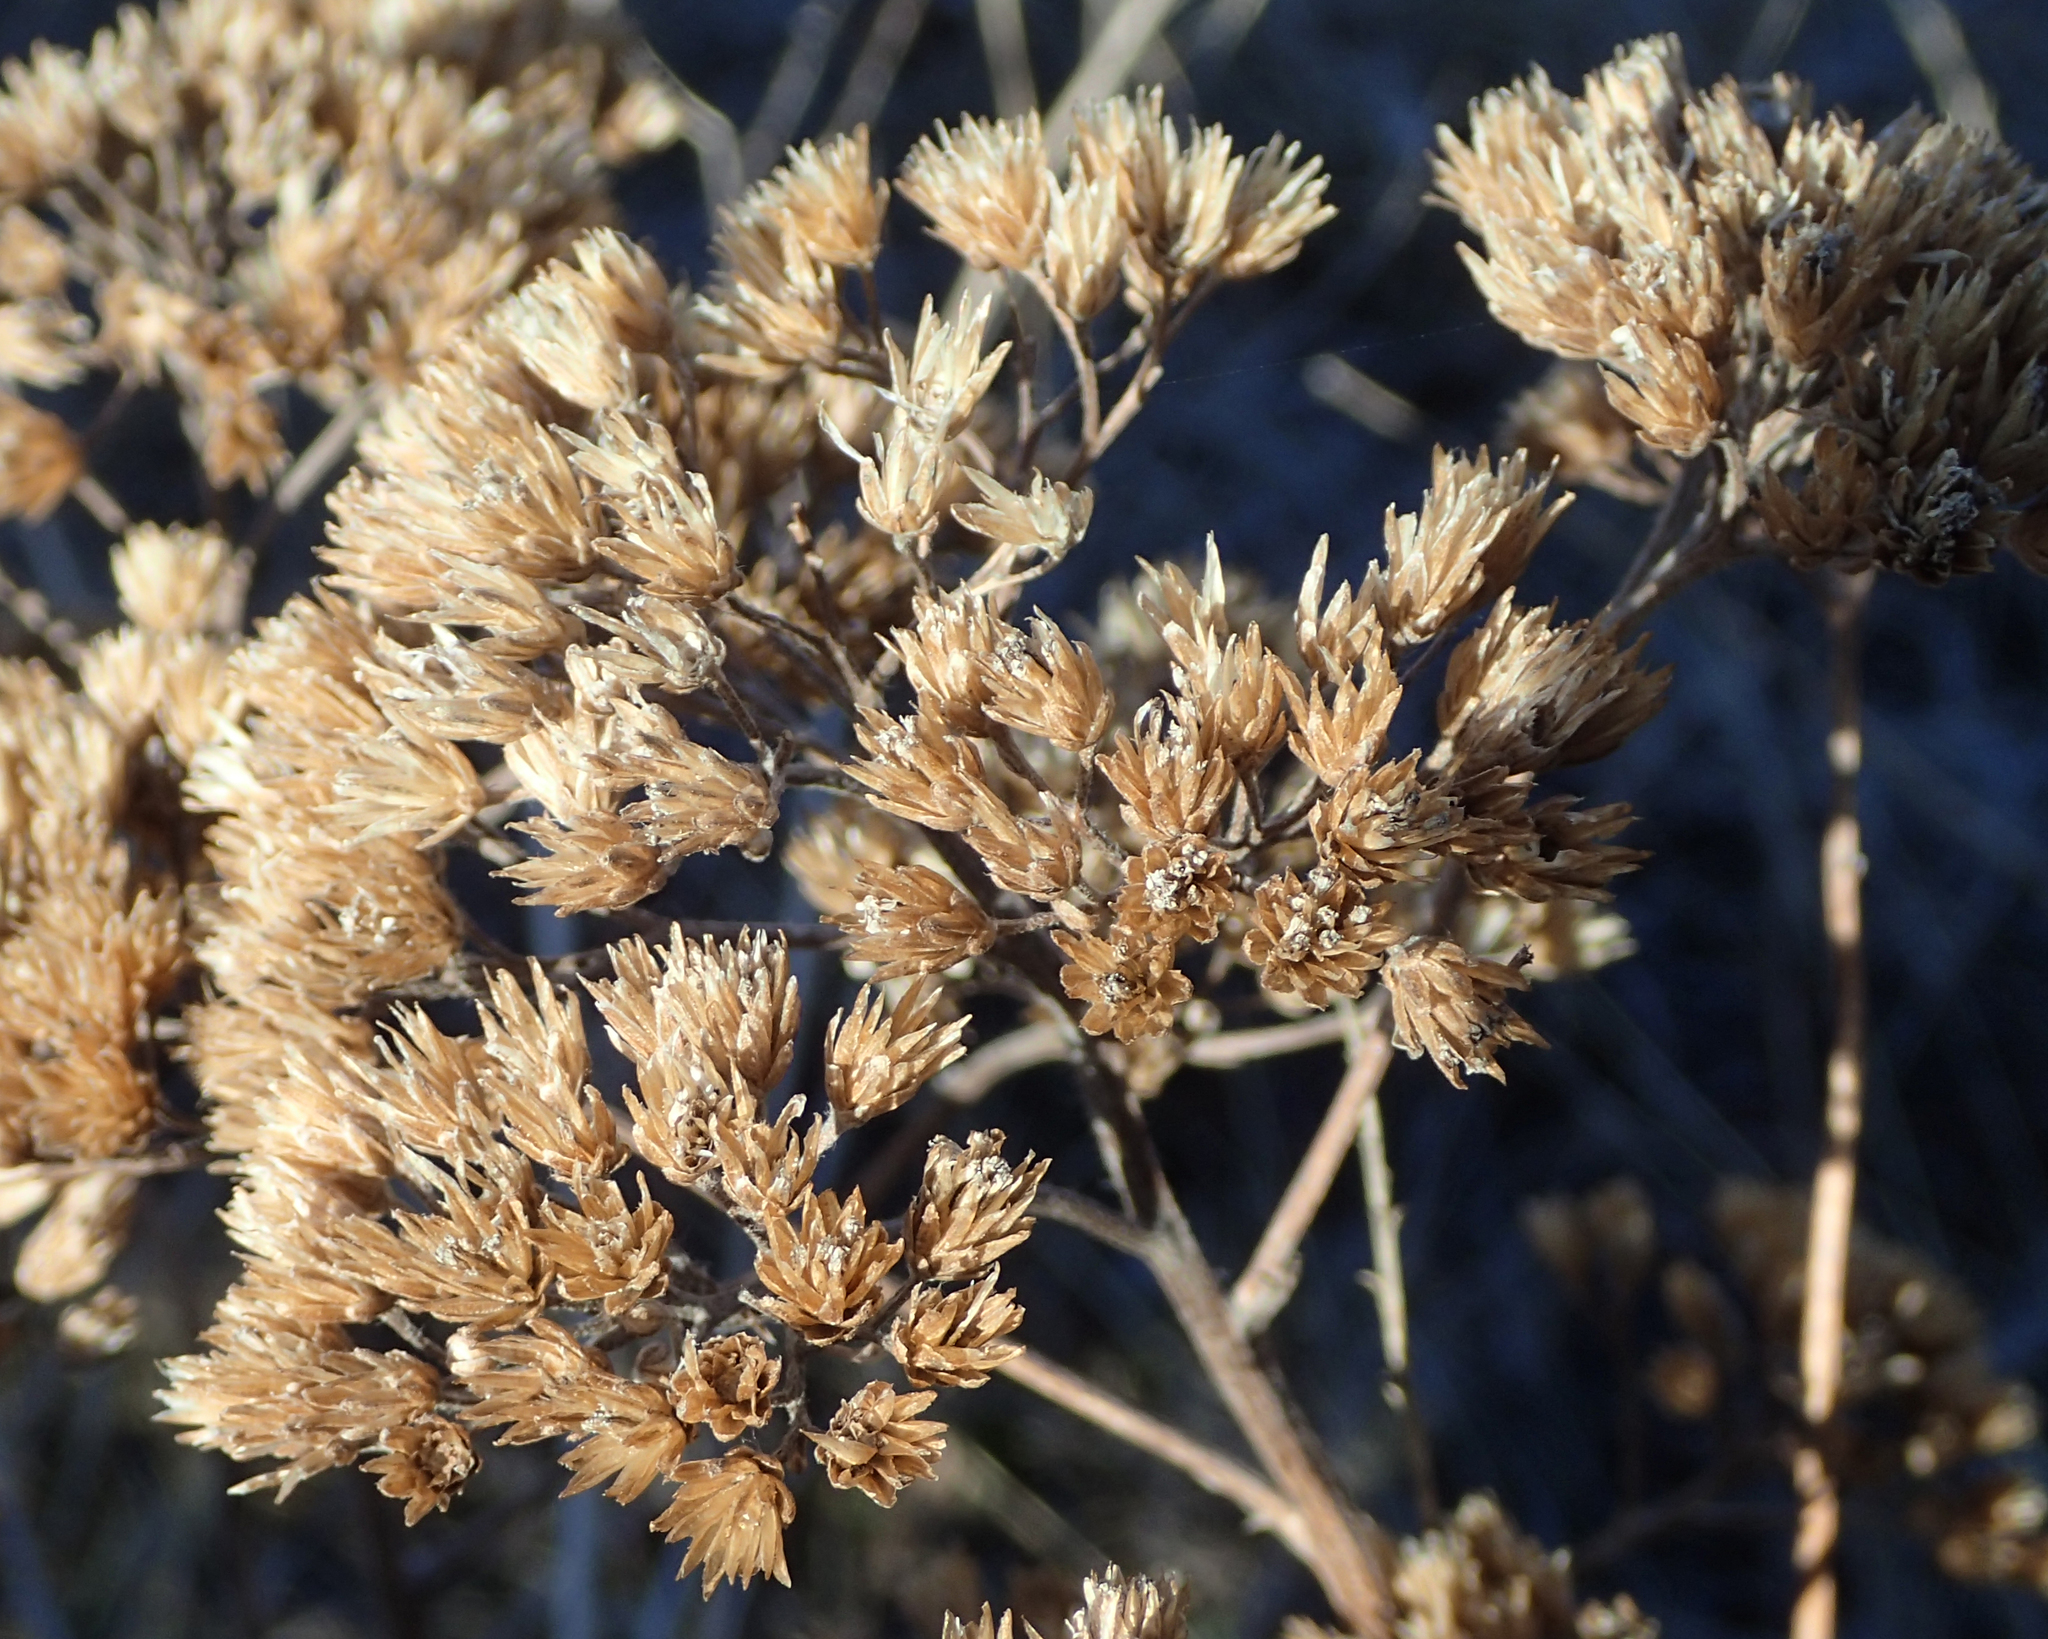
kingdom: Plantae
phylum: Tracheophyta
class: Magnoliopsida
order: Asterales
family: Asteraceae
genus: Achillea
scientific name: Achillea millefolium
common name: Yarrow
